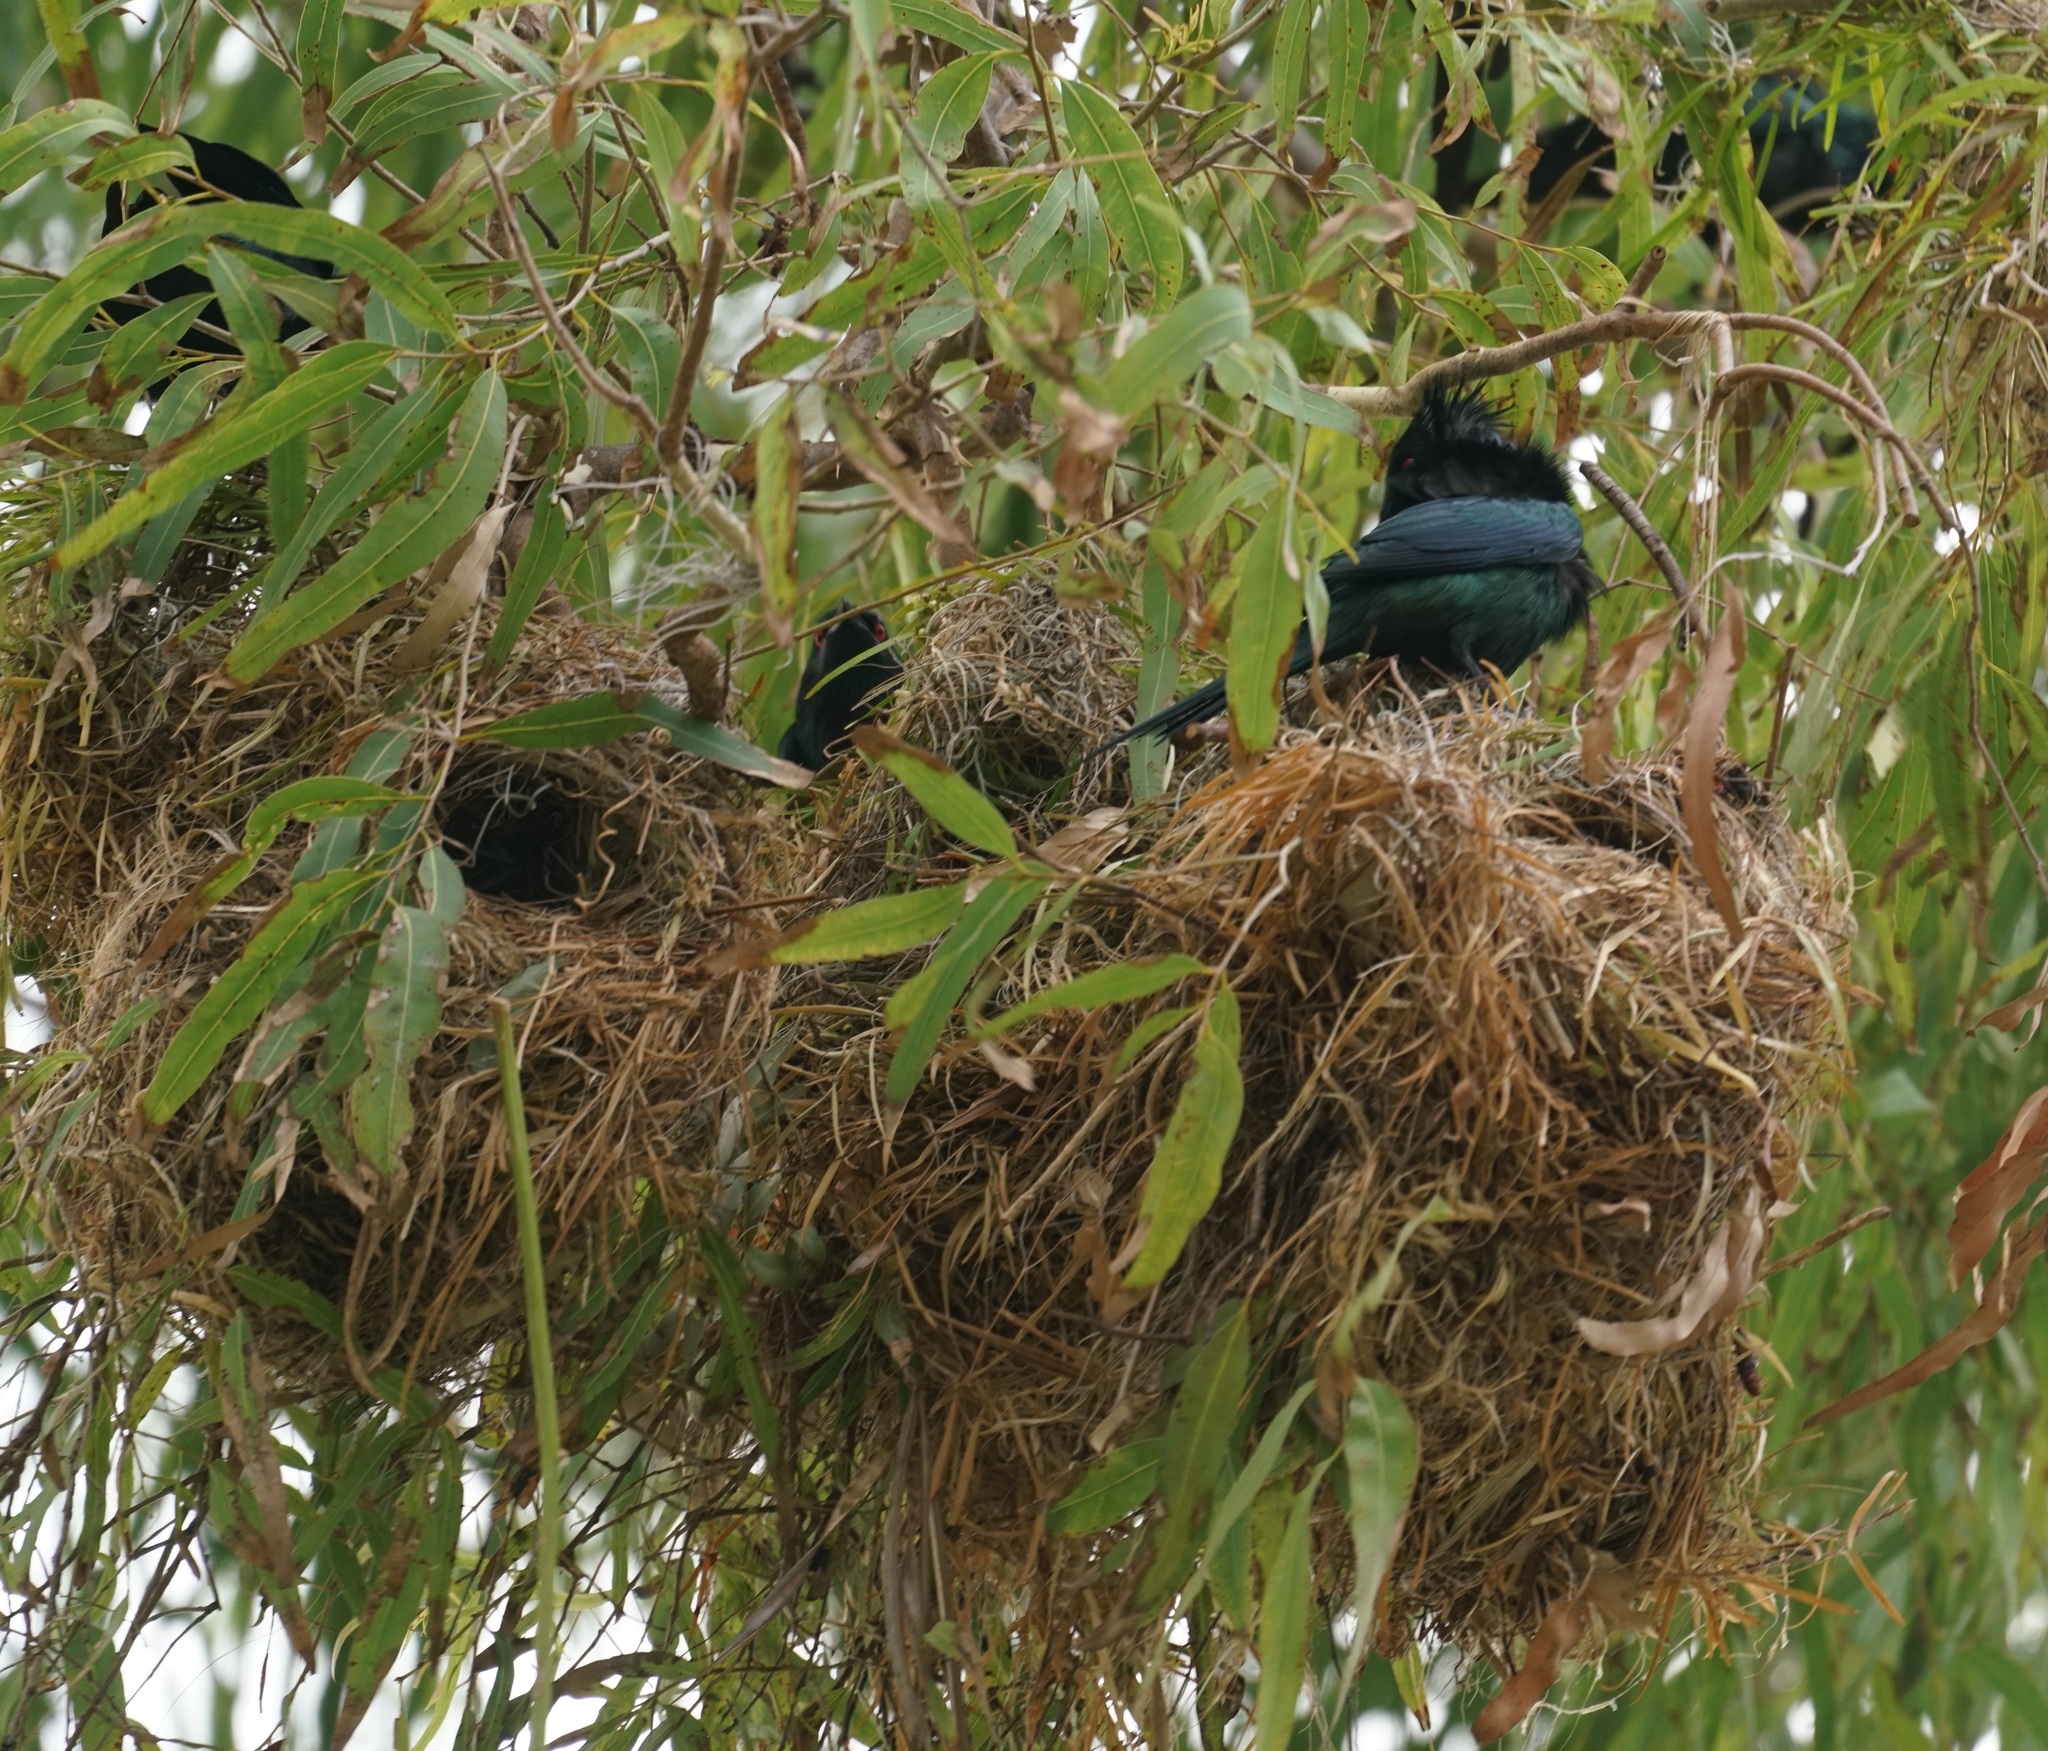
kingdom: Animalia
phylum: Chordata
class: Aves
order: Passeriformes
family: Sturnidae
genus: Aplonis
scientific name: Aplonis metallica
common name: Metallic starling
